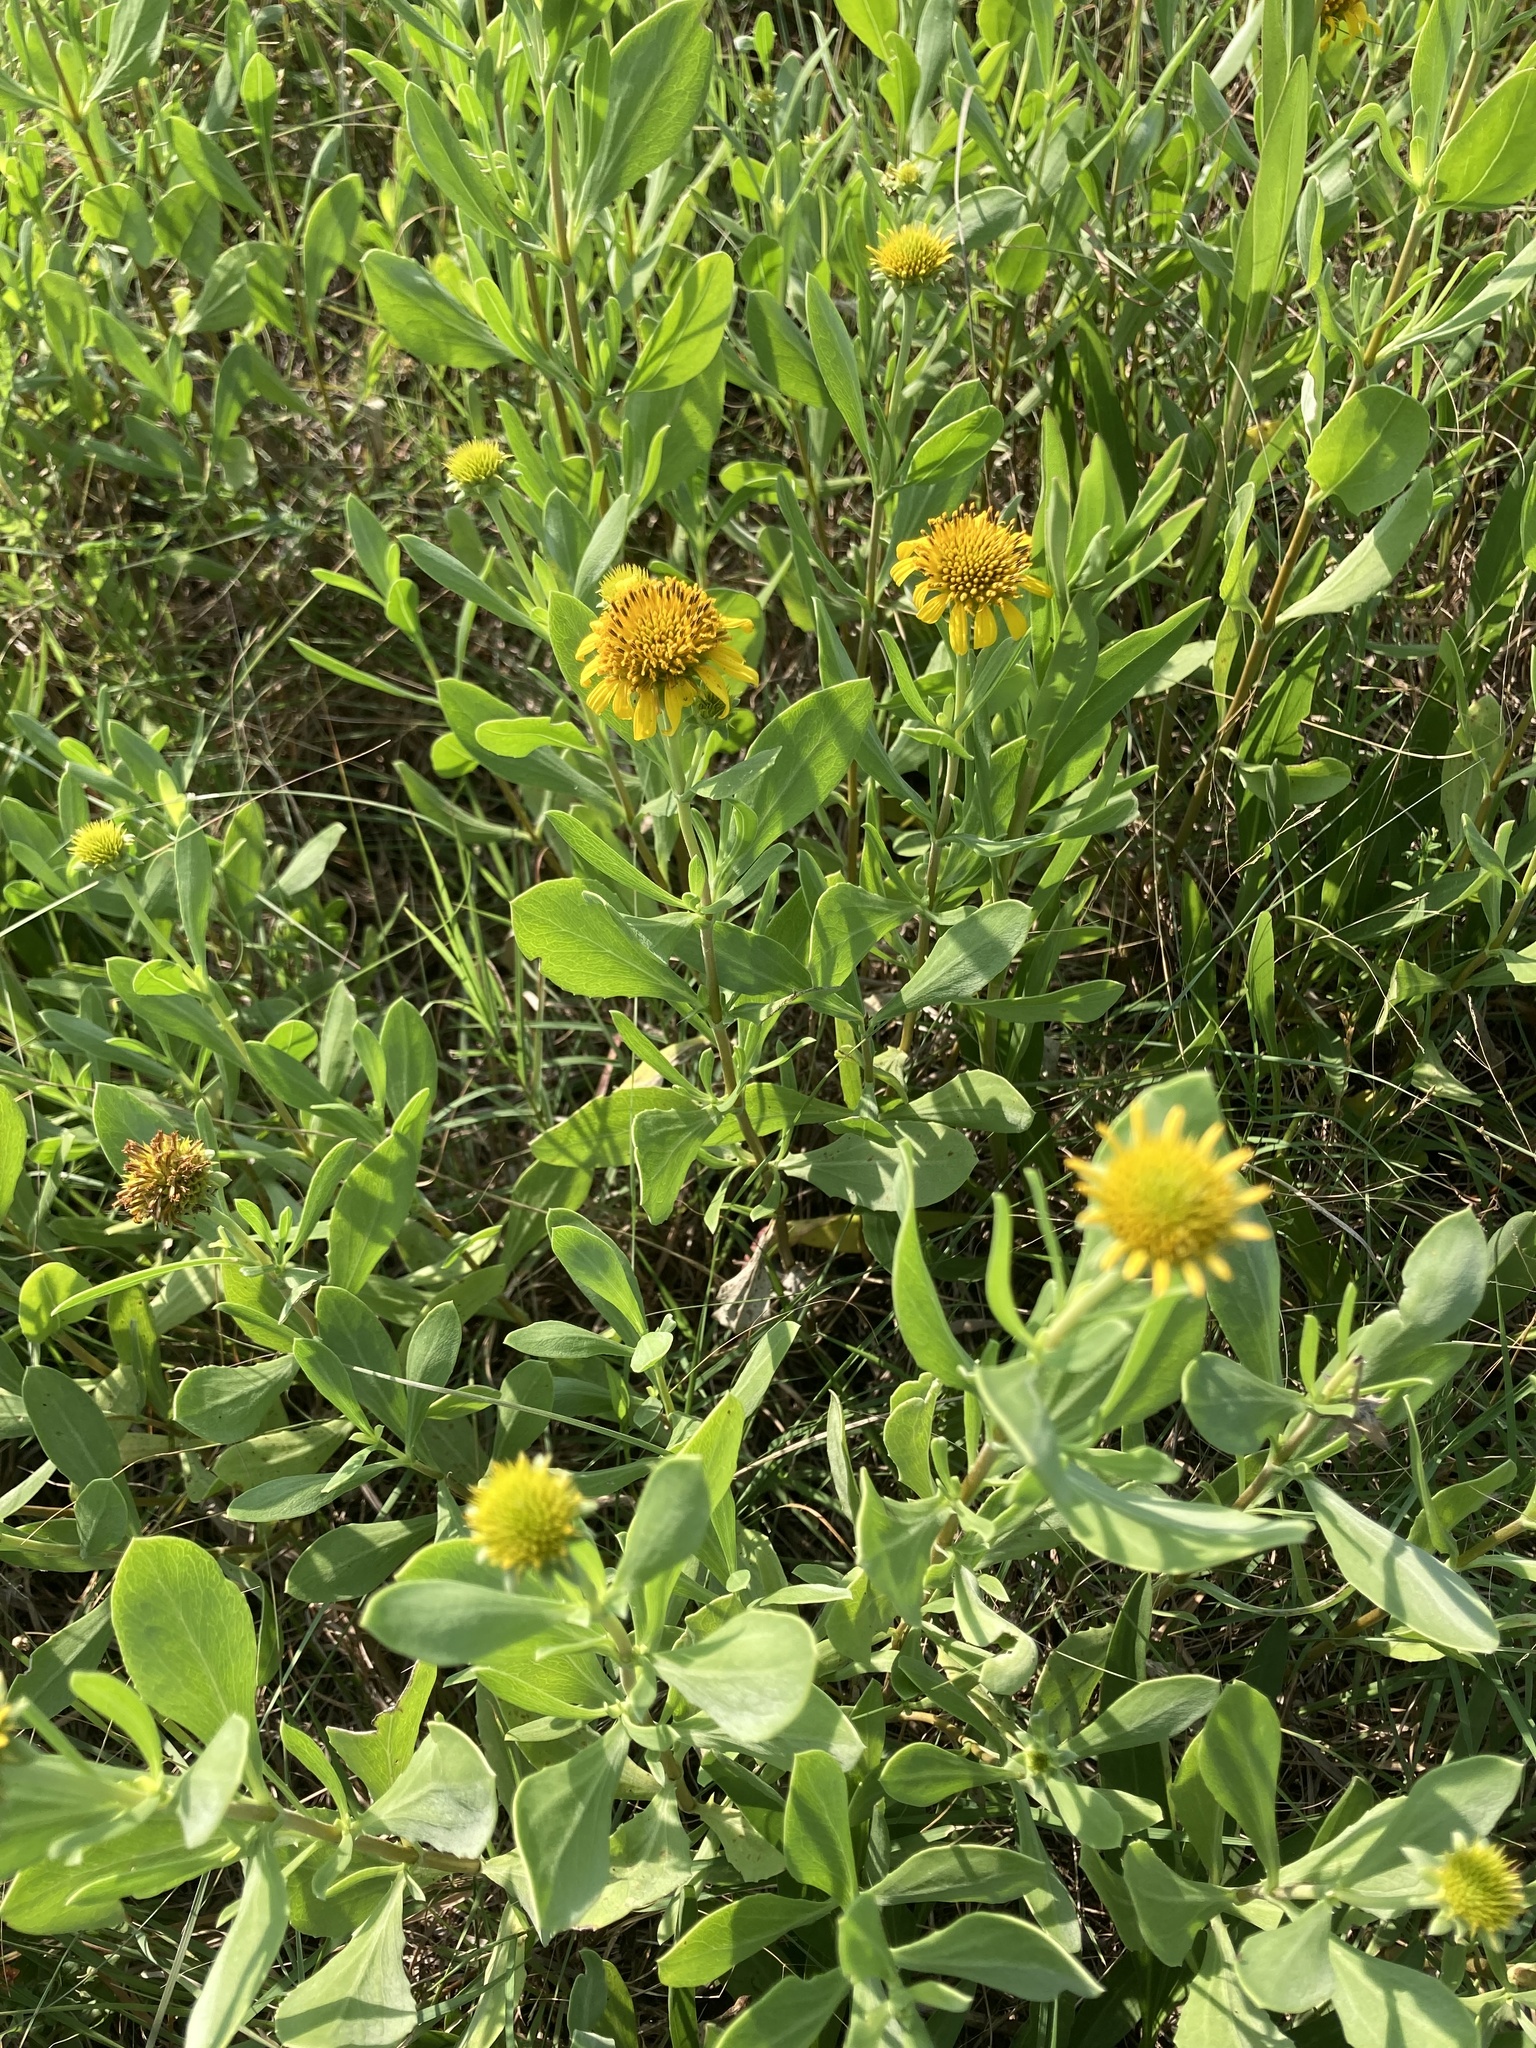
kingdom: Plantae
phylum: Tracheophyta
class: Magnoliopsida
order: Asterales
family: Asteraceae
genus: Borrichia
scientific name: Borrichia frutescens
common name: Sea oxeye
